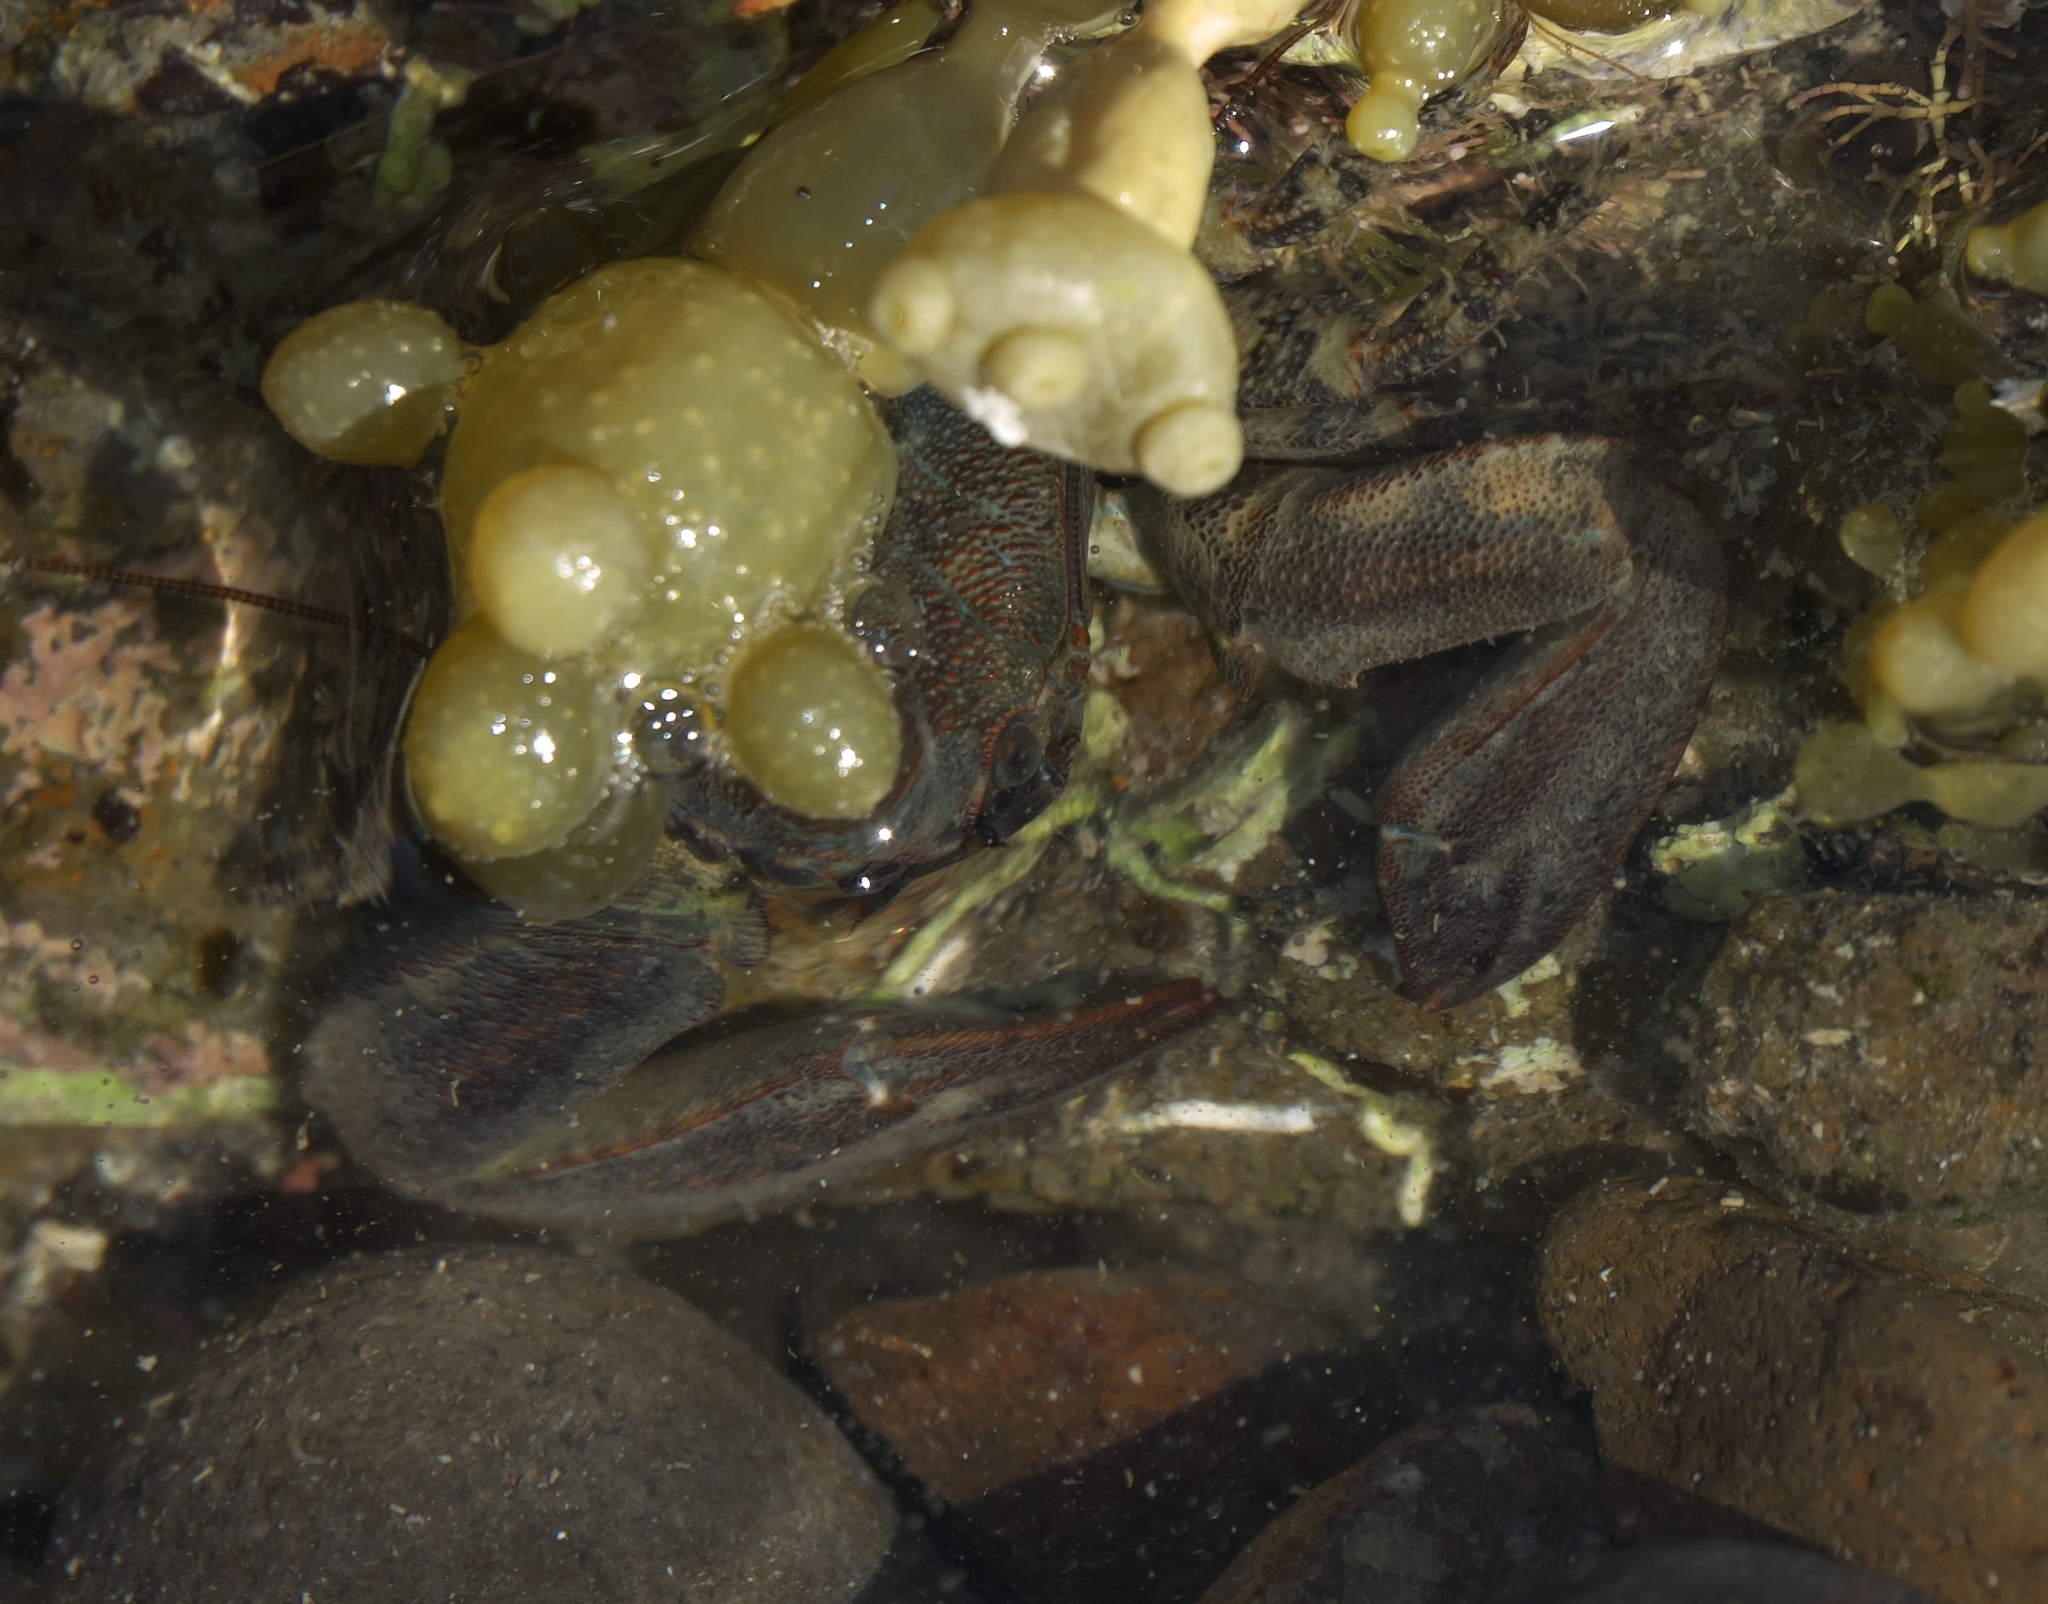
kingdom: Animalia
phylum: Arthropoda
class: Malacostraca
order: Decapoda
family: Porcellanidae
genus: Petrolisthes
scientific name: Petrolisthes elongatus
